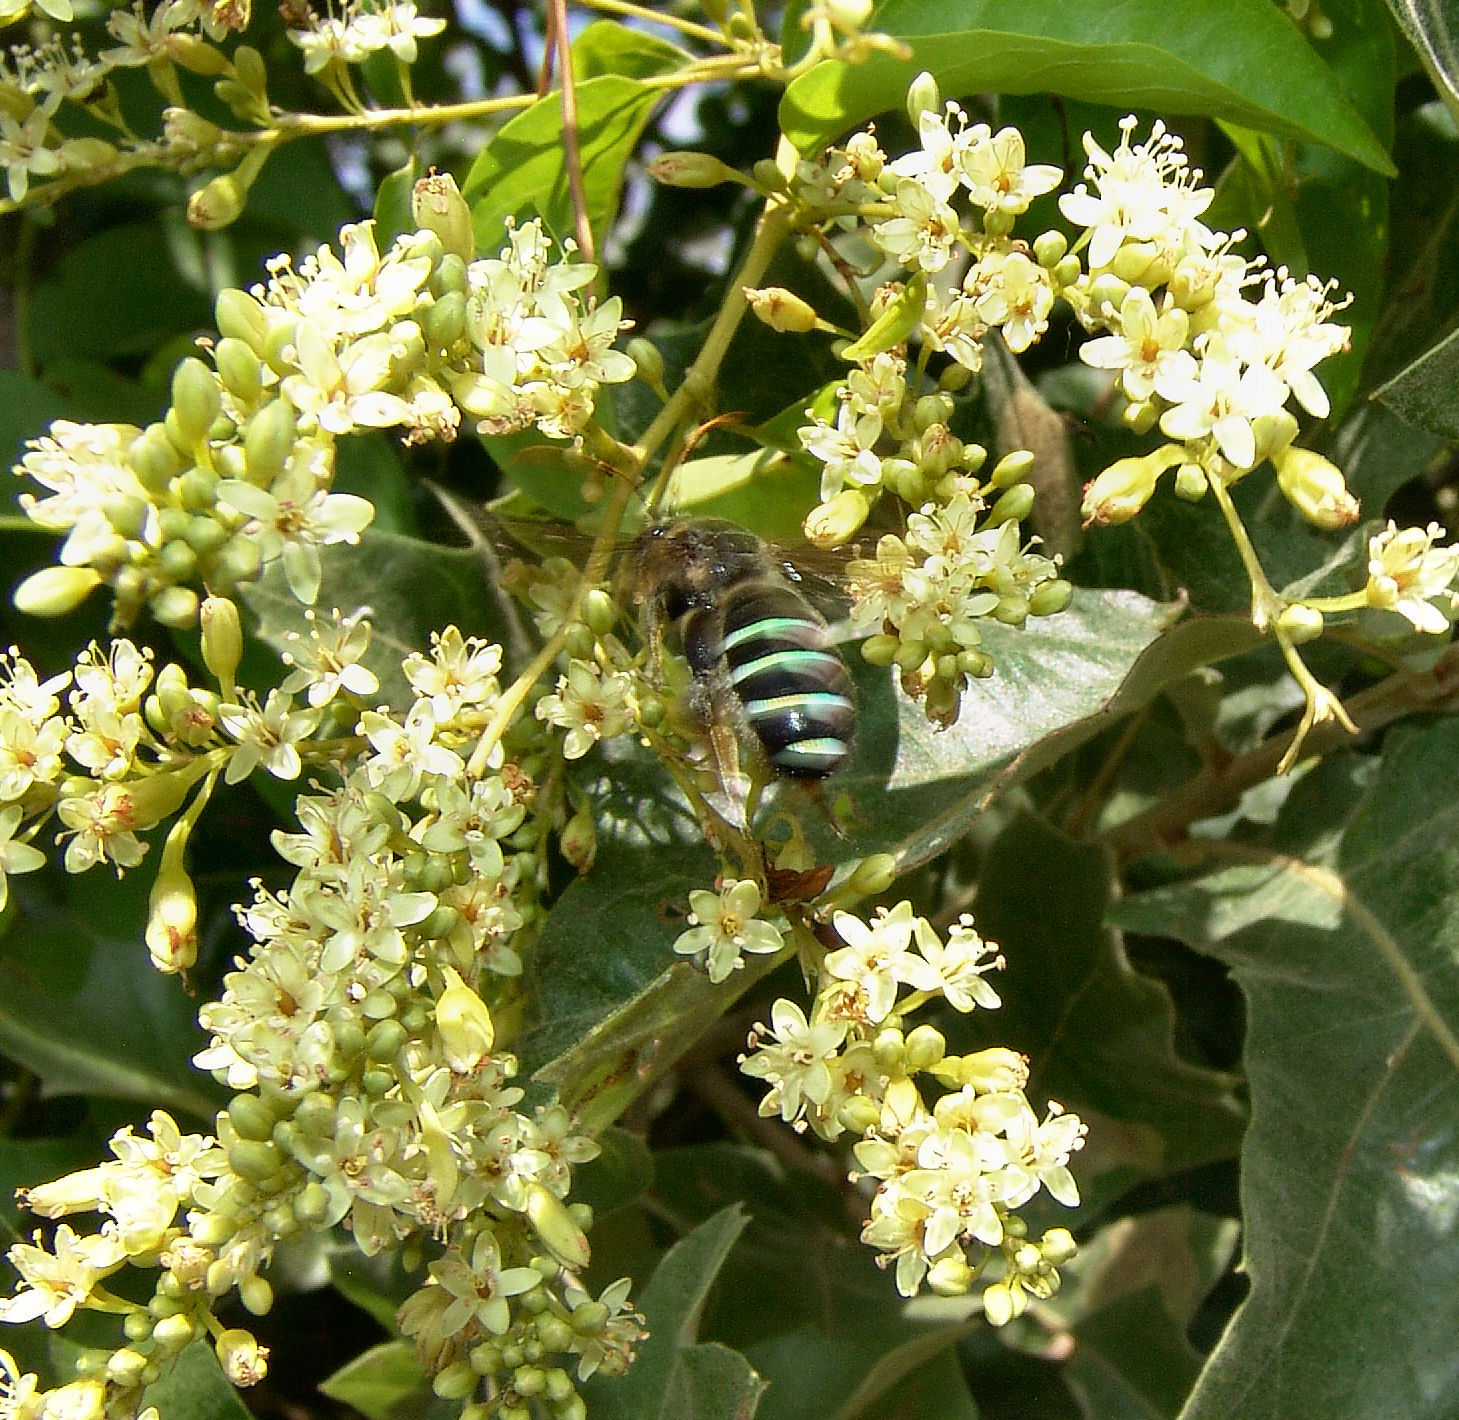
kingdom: Animalia
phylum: Arthropoda
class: Insecta
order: Hymenoptera
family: Halictidae
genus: Nomia
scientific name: Nomia nortoni
